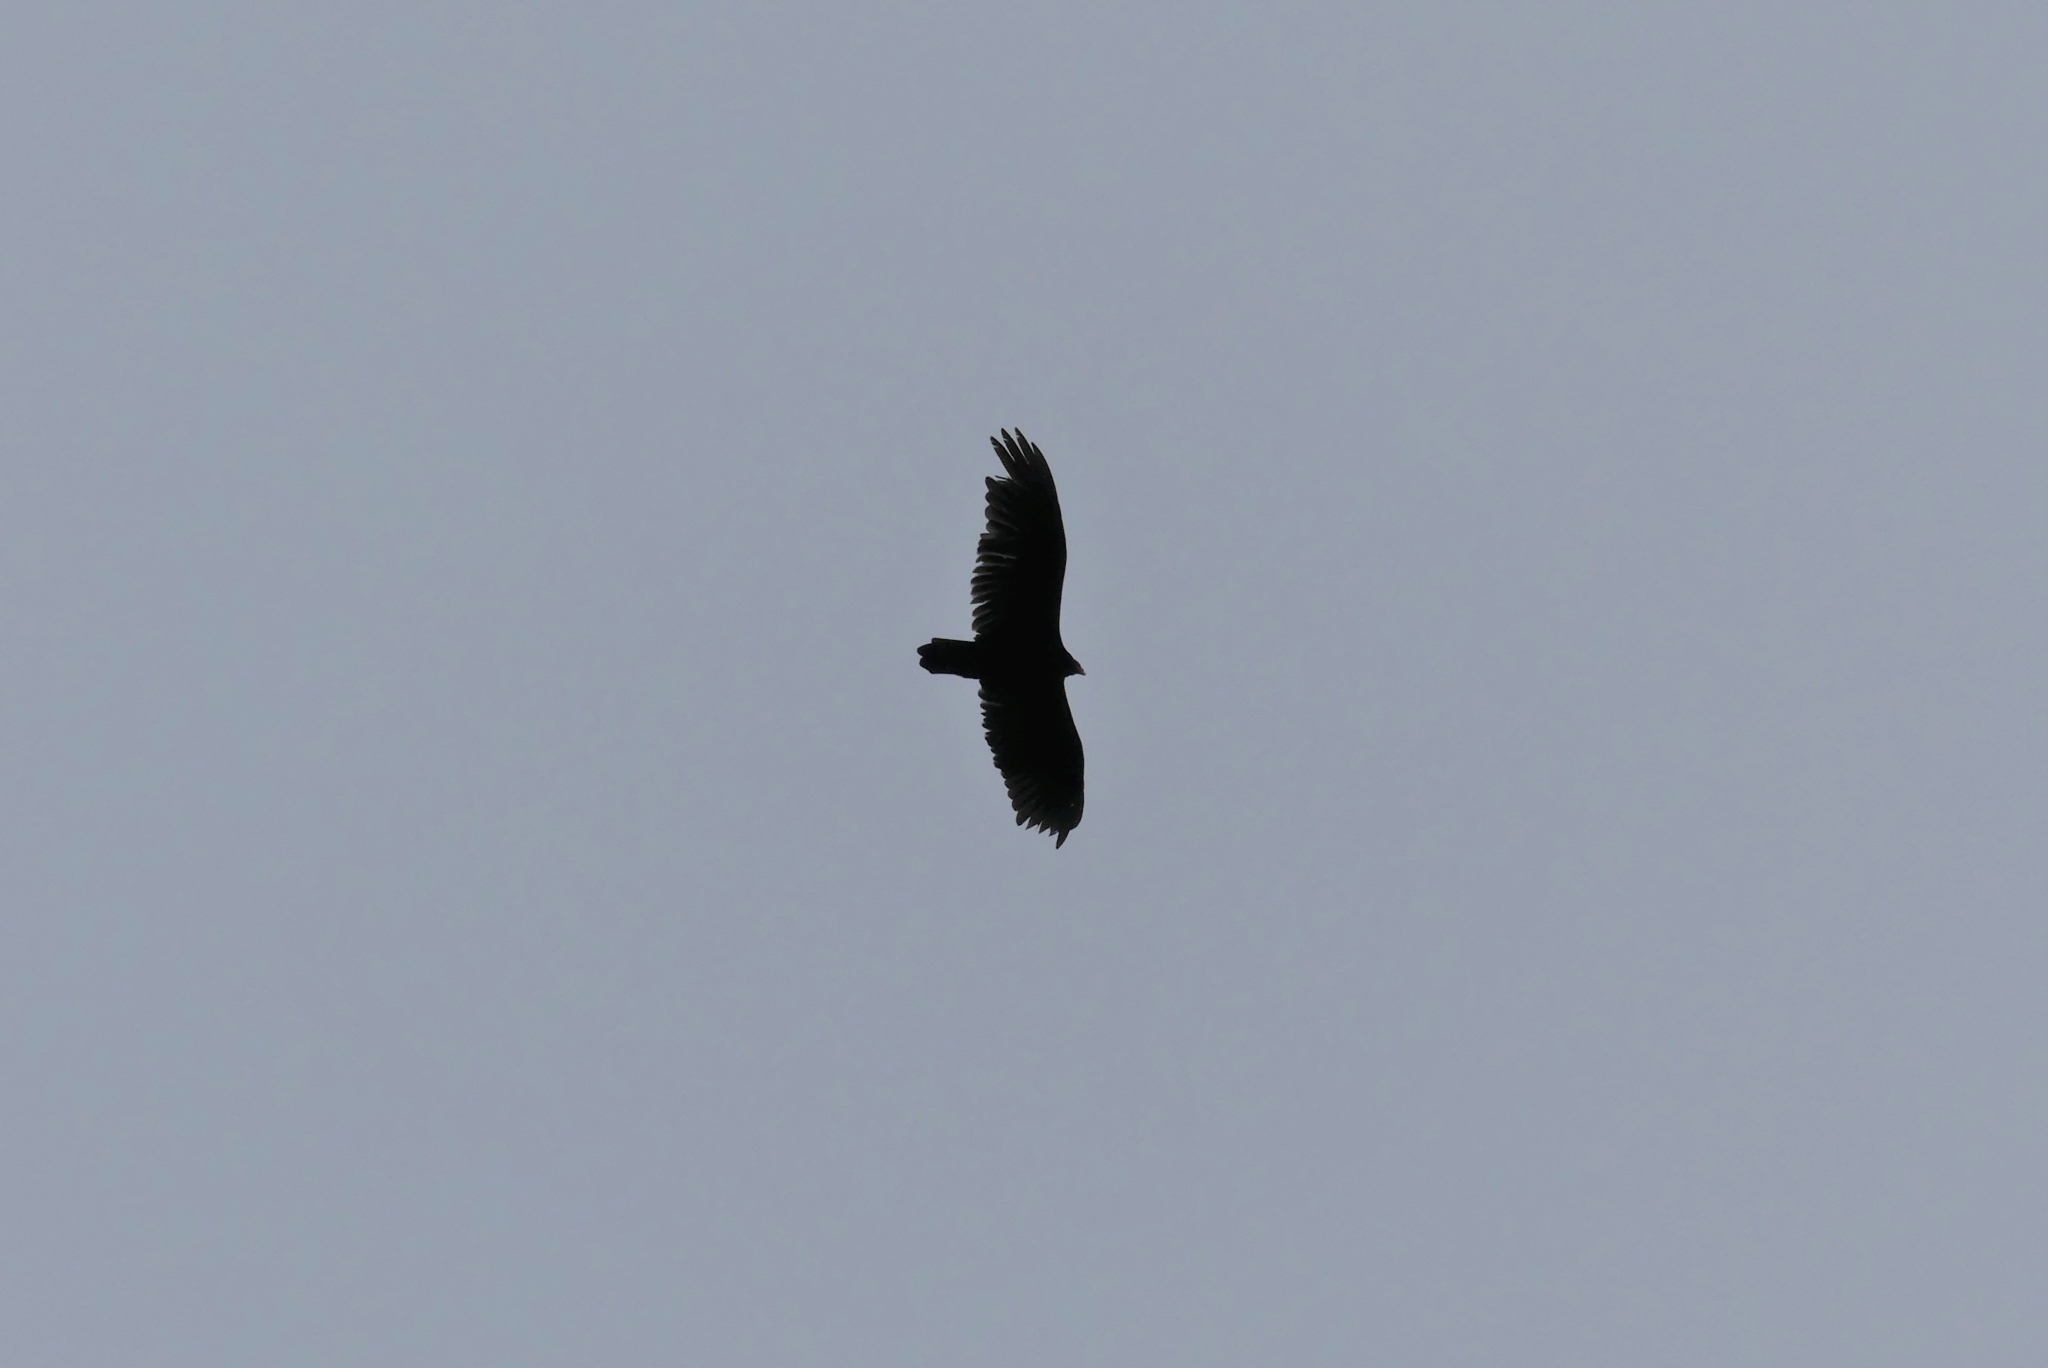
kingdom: Animalia
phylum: Chordata
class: Aves
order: Accipitriformes
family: Cathartidae
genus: Cathartes
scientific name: Cathartes aura
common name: Turkey vulture
